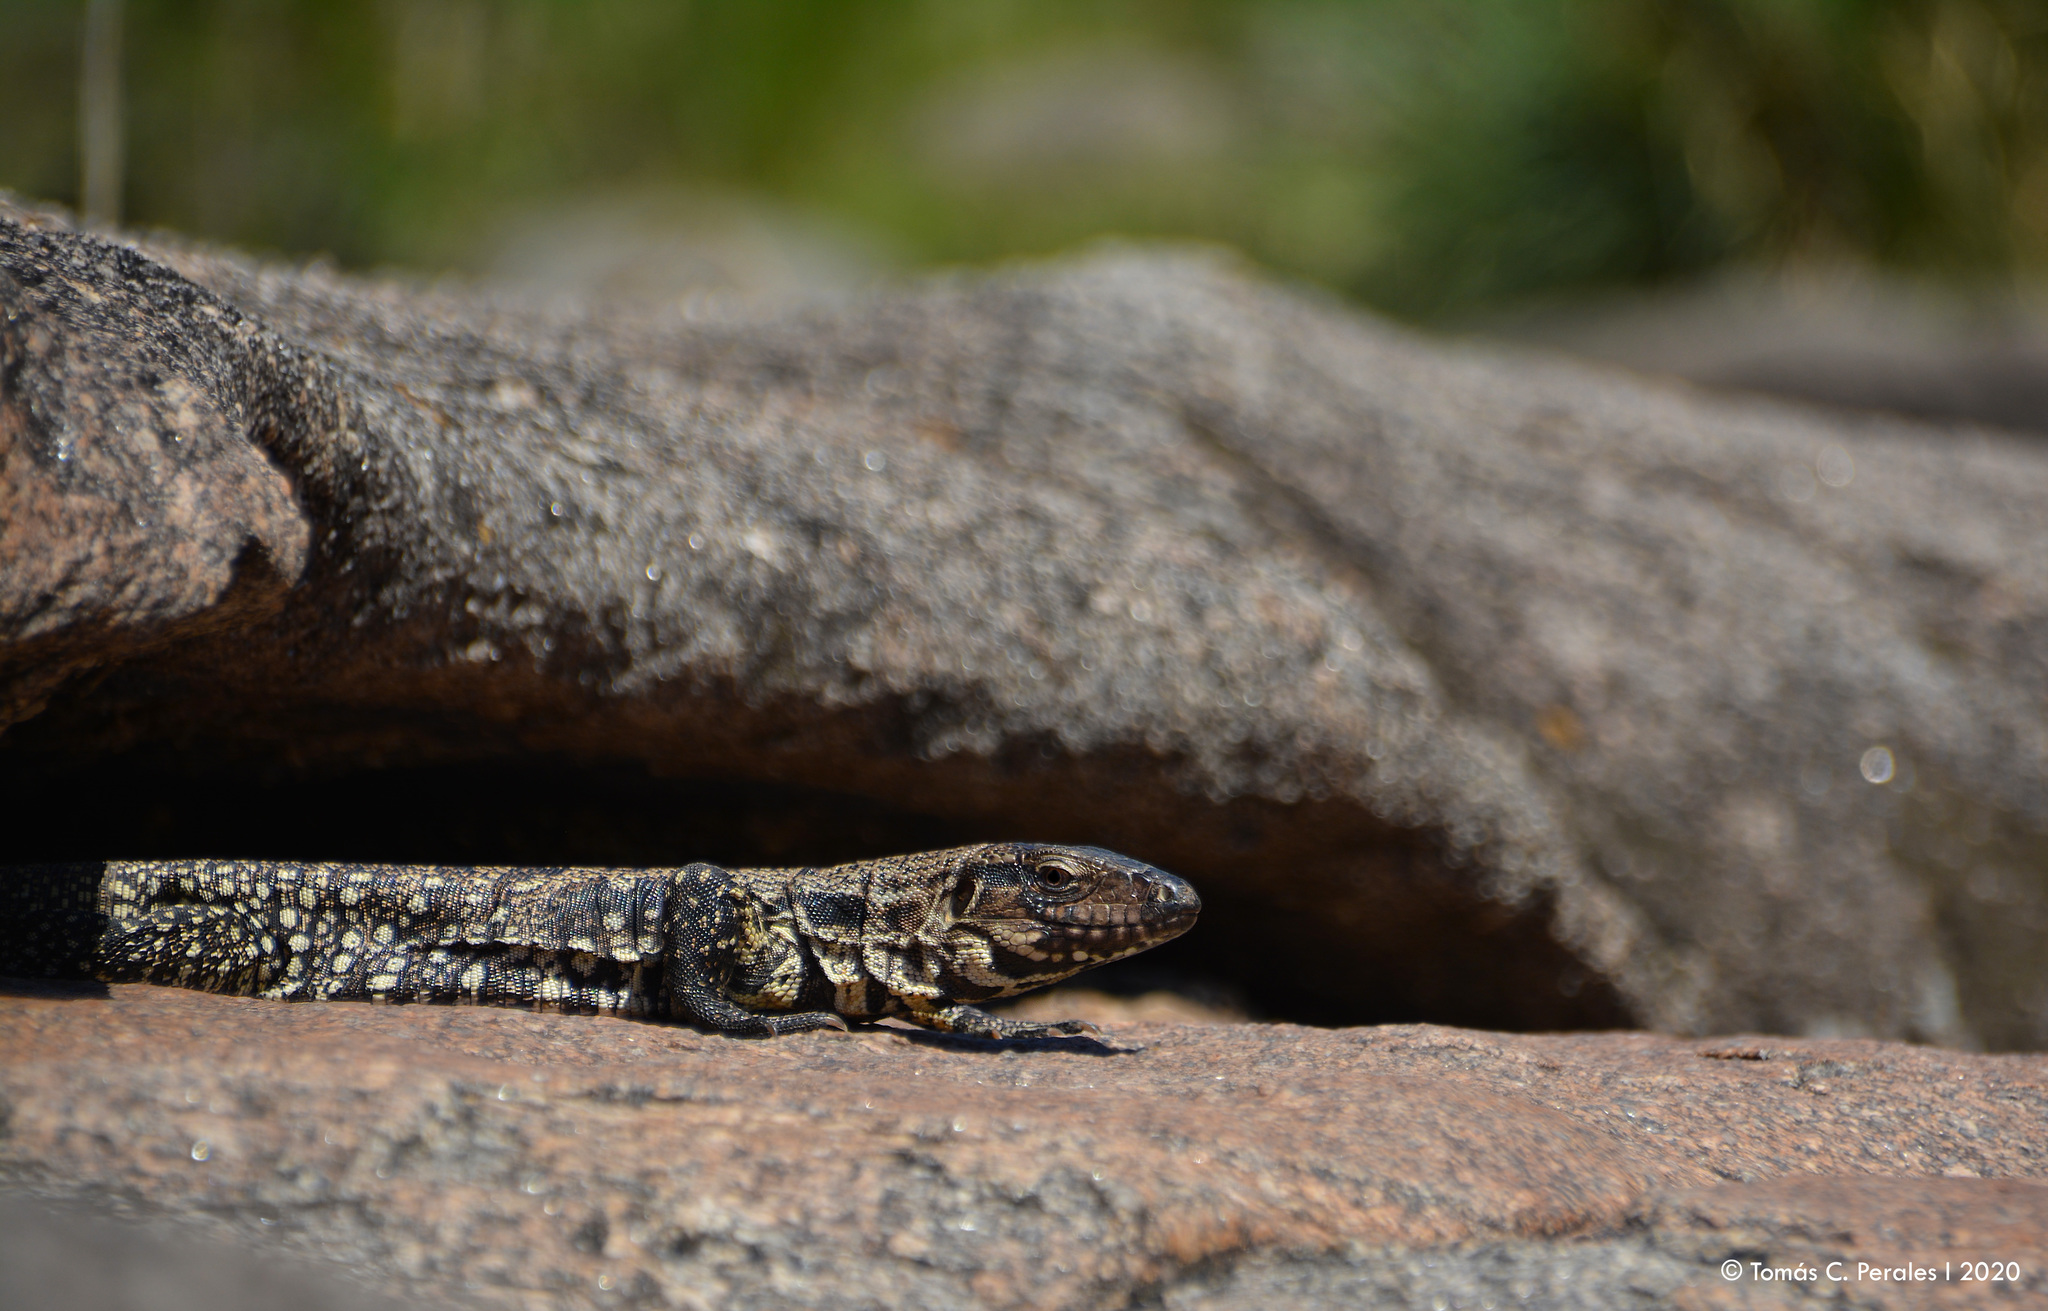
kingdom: Animalia
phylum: Chordata
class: Squamata
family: Teiidae
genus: Salvator
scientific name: Salvator merianae
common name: Argentine black and white tegu
